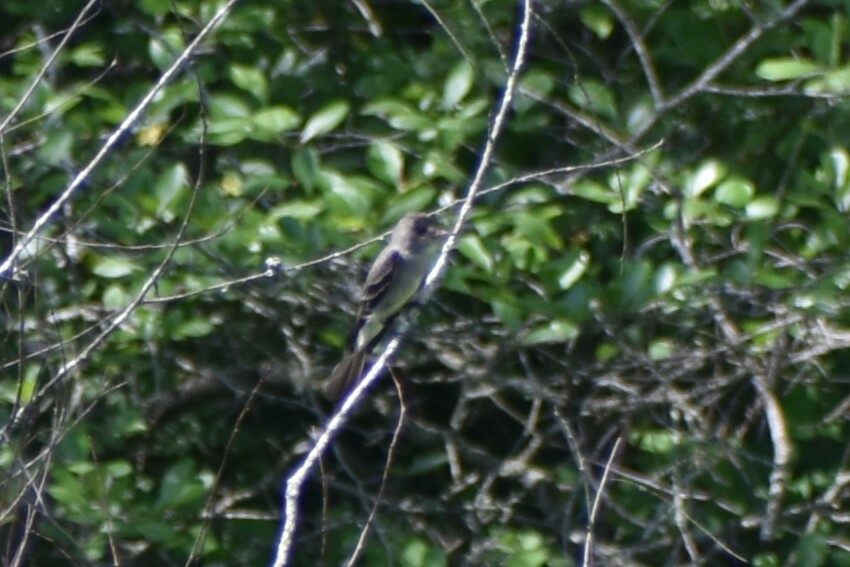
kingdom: Animalia
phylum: Chordata
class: Aves
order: Passeriformes
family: Tyrannidae
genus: Contopus
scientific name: Contopus virens
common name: Eastern wood-pewee
